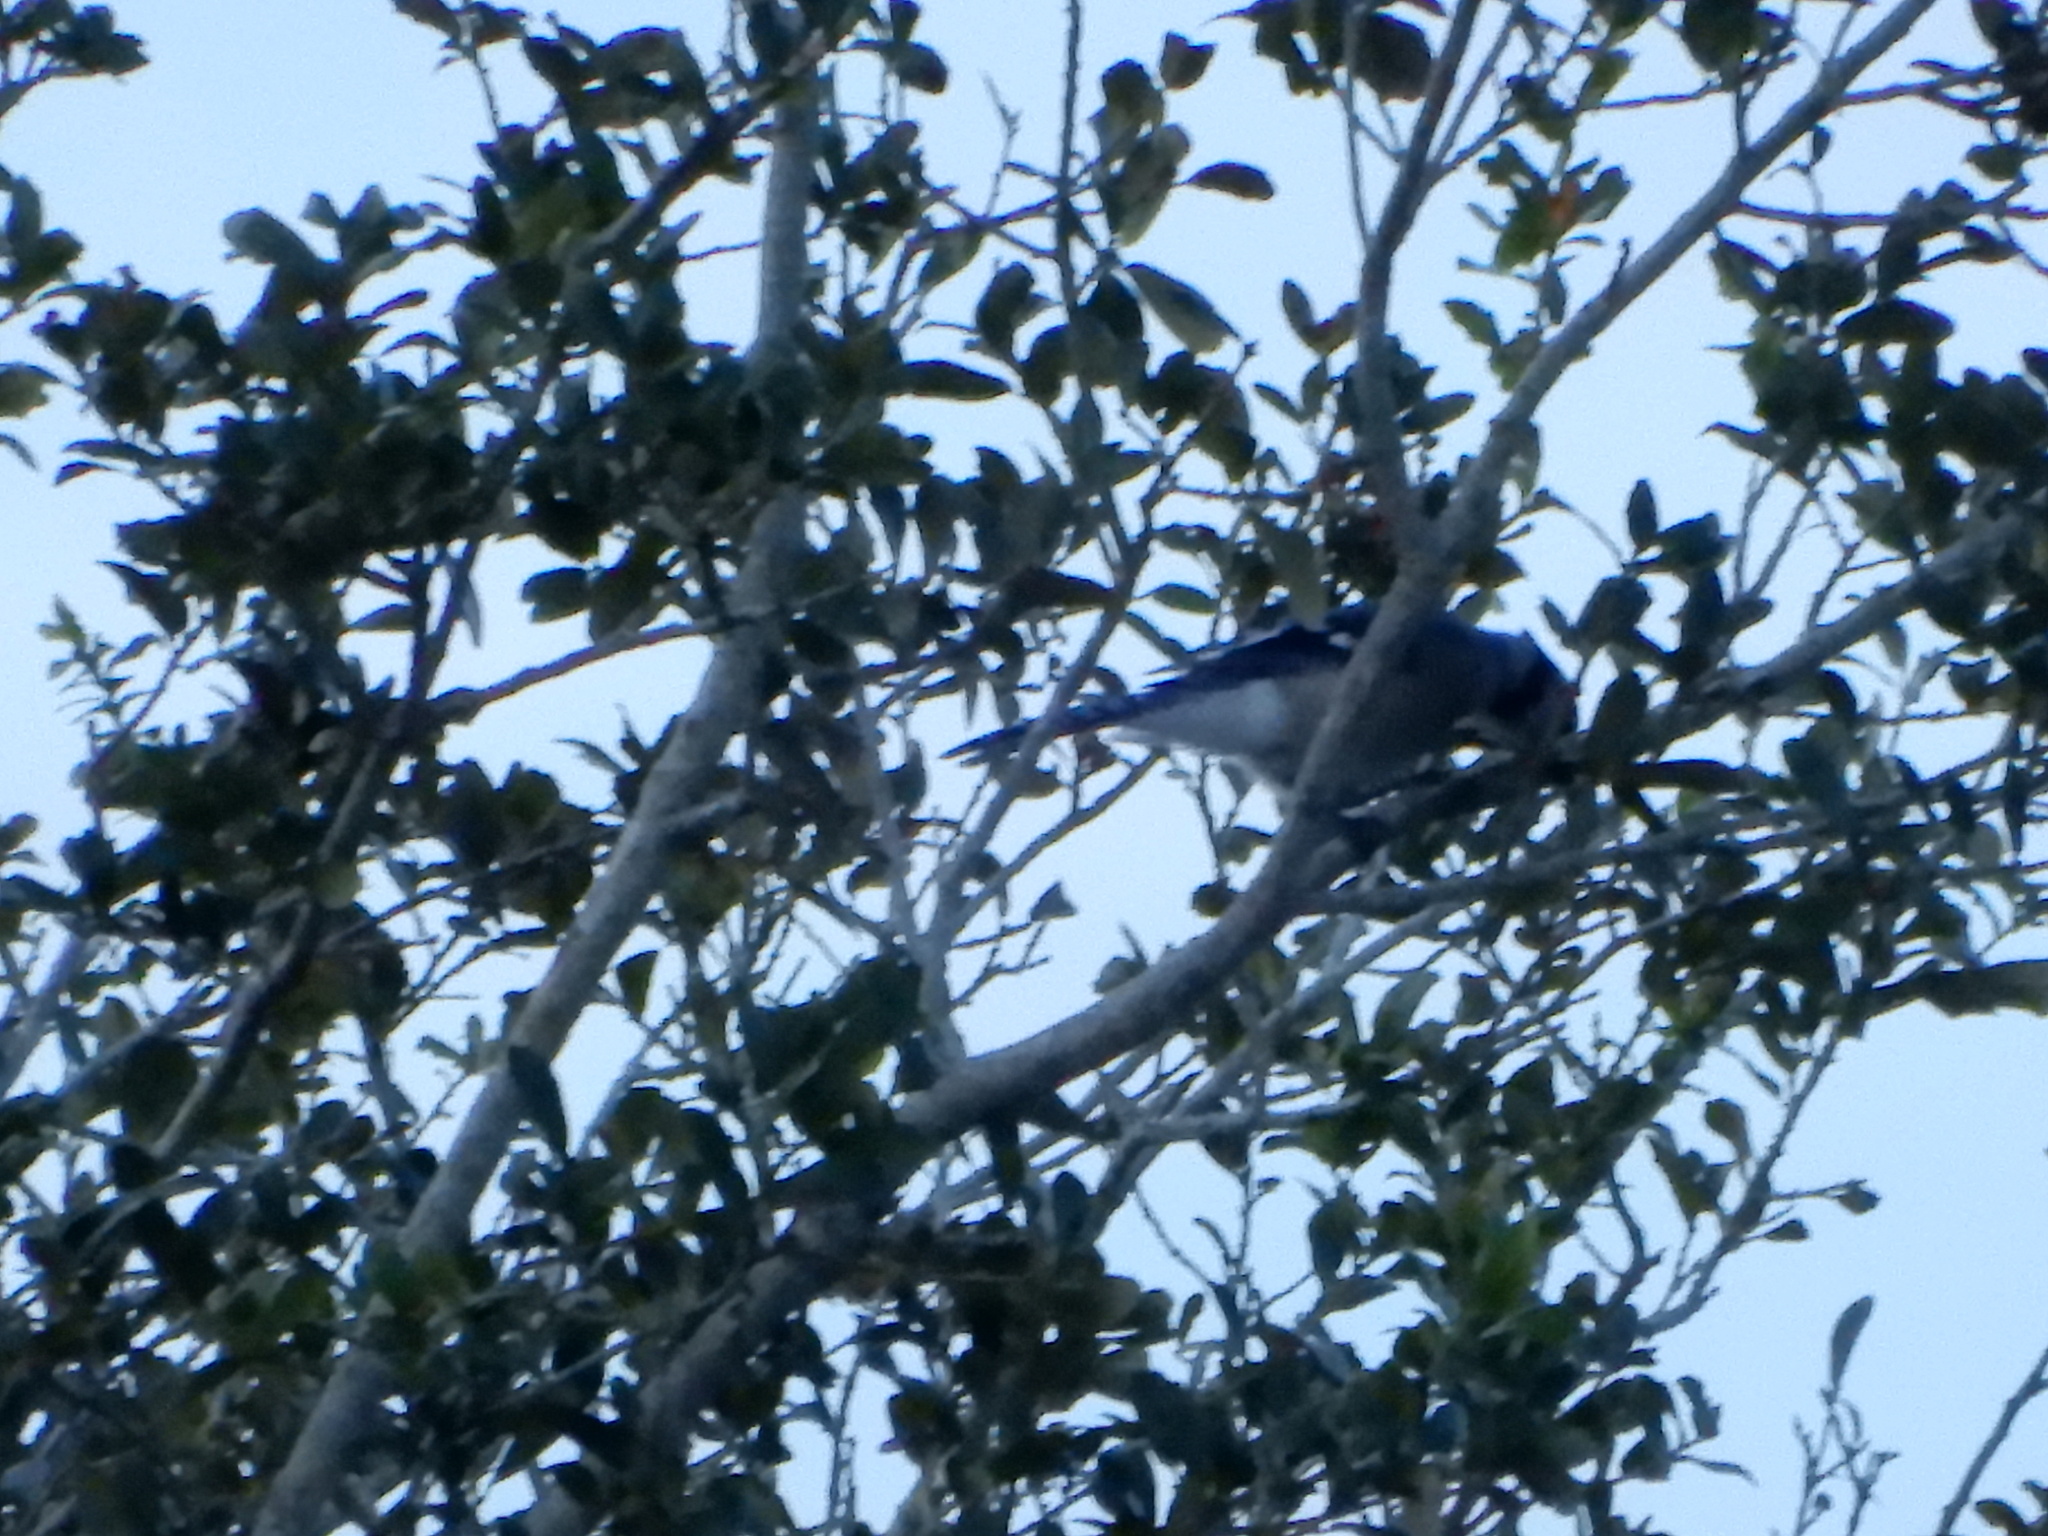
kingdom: Animalia
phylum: Chordata
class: Aves
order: Passeriformes
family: Corvidae
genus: Cyanocitta
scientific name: Cyanocitta cristata
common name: Blue jay
